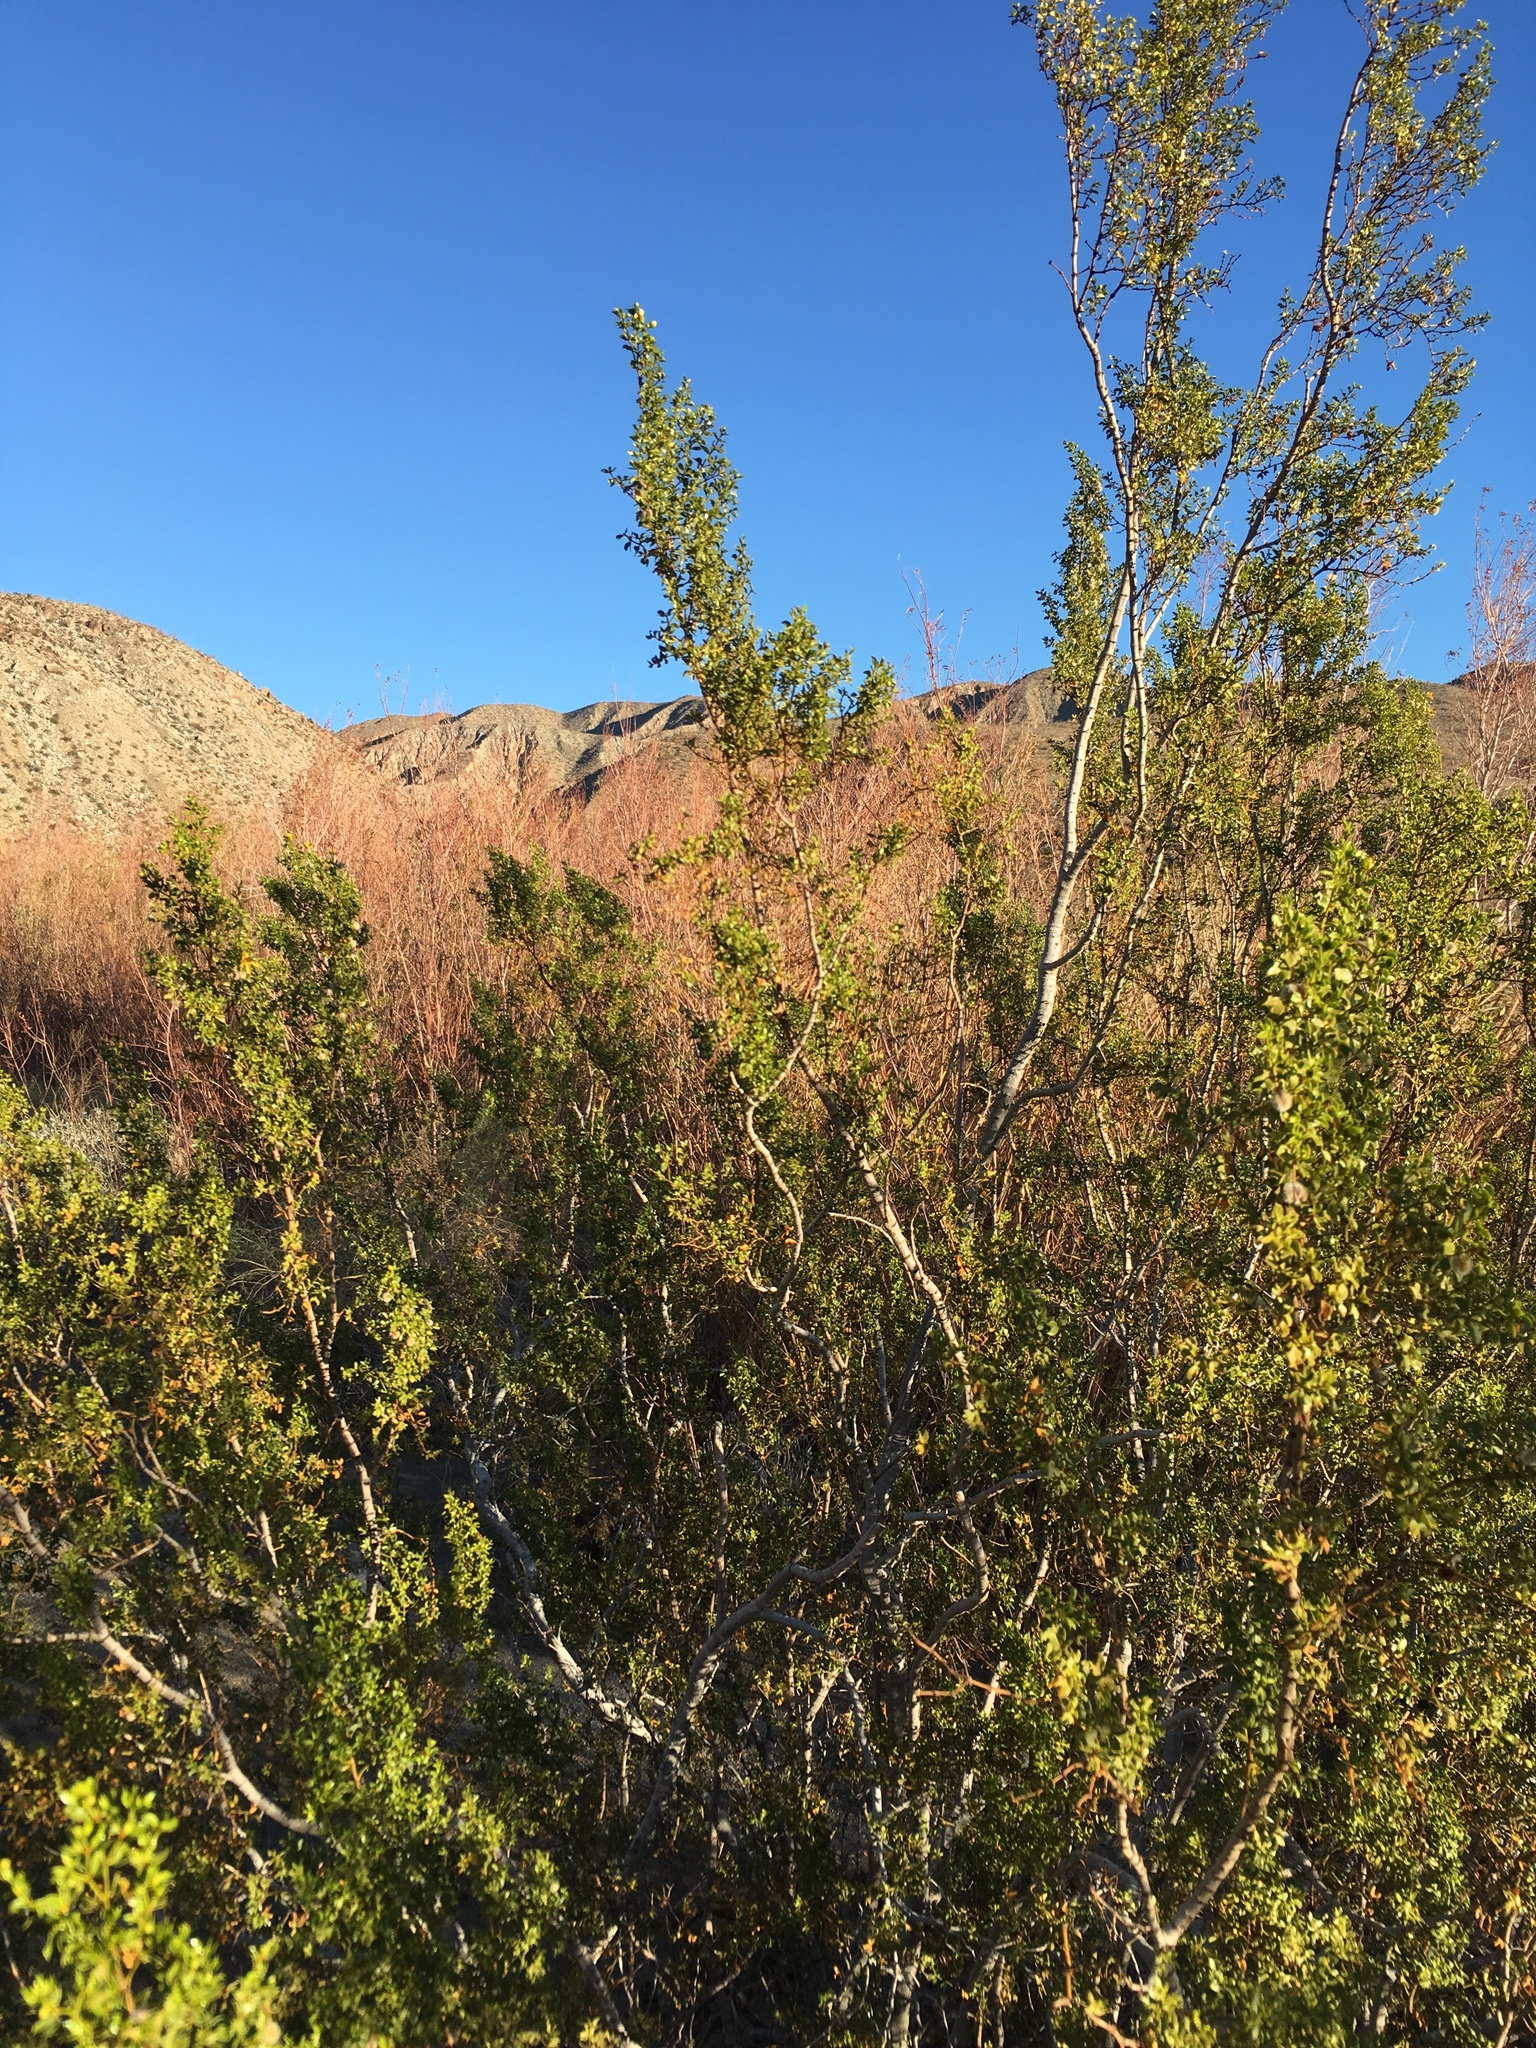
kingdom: Plantae
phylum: Tracheophyta
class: Magnoliopsida
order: Zygophyllales
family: Zygophyllaceae
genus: Larrea
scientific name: Larrea tridentata
